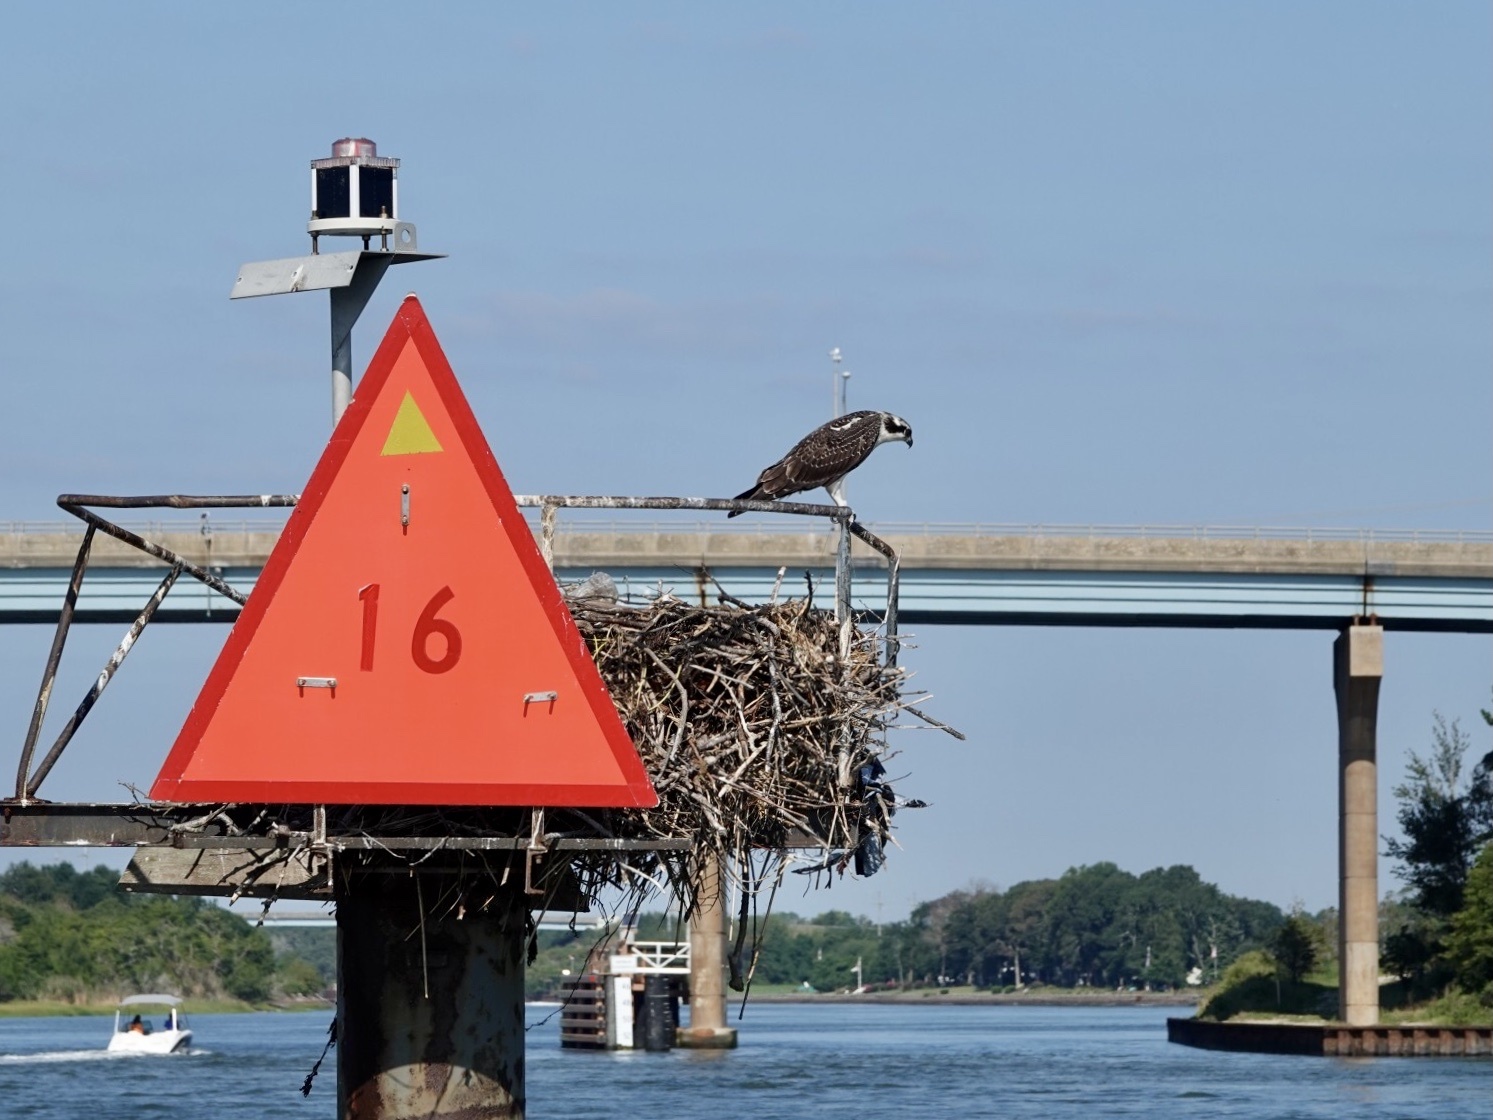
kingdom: Animalia
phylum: Chordata
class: Aves
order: Accipitriformes
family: Pandionidae
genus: Pandion
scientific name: Pandion haliaetus
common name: Osprey
